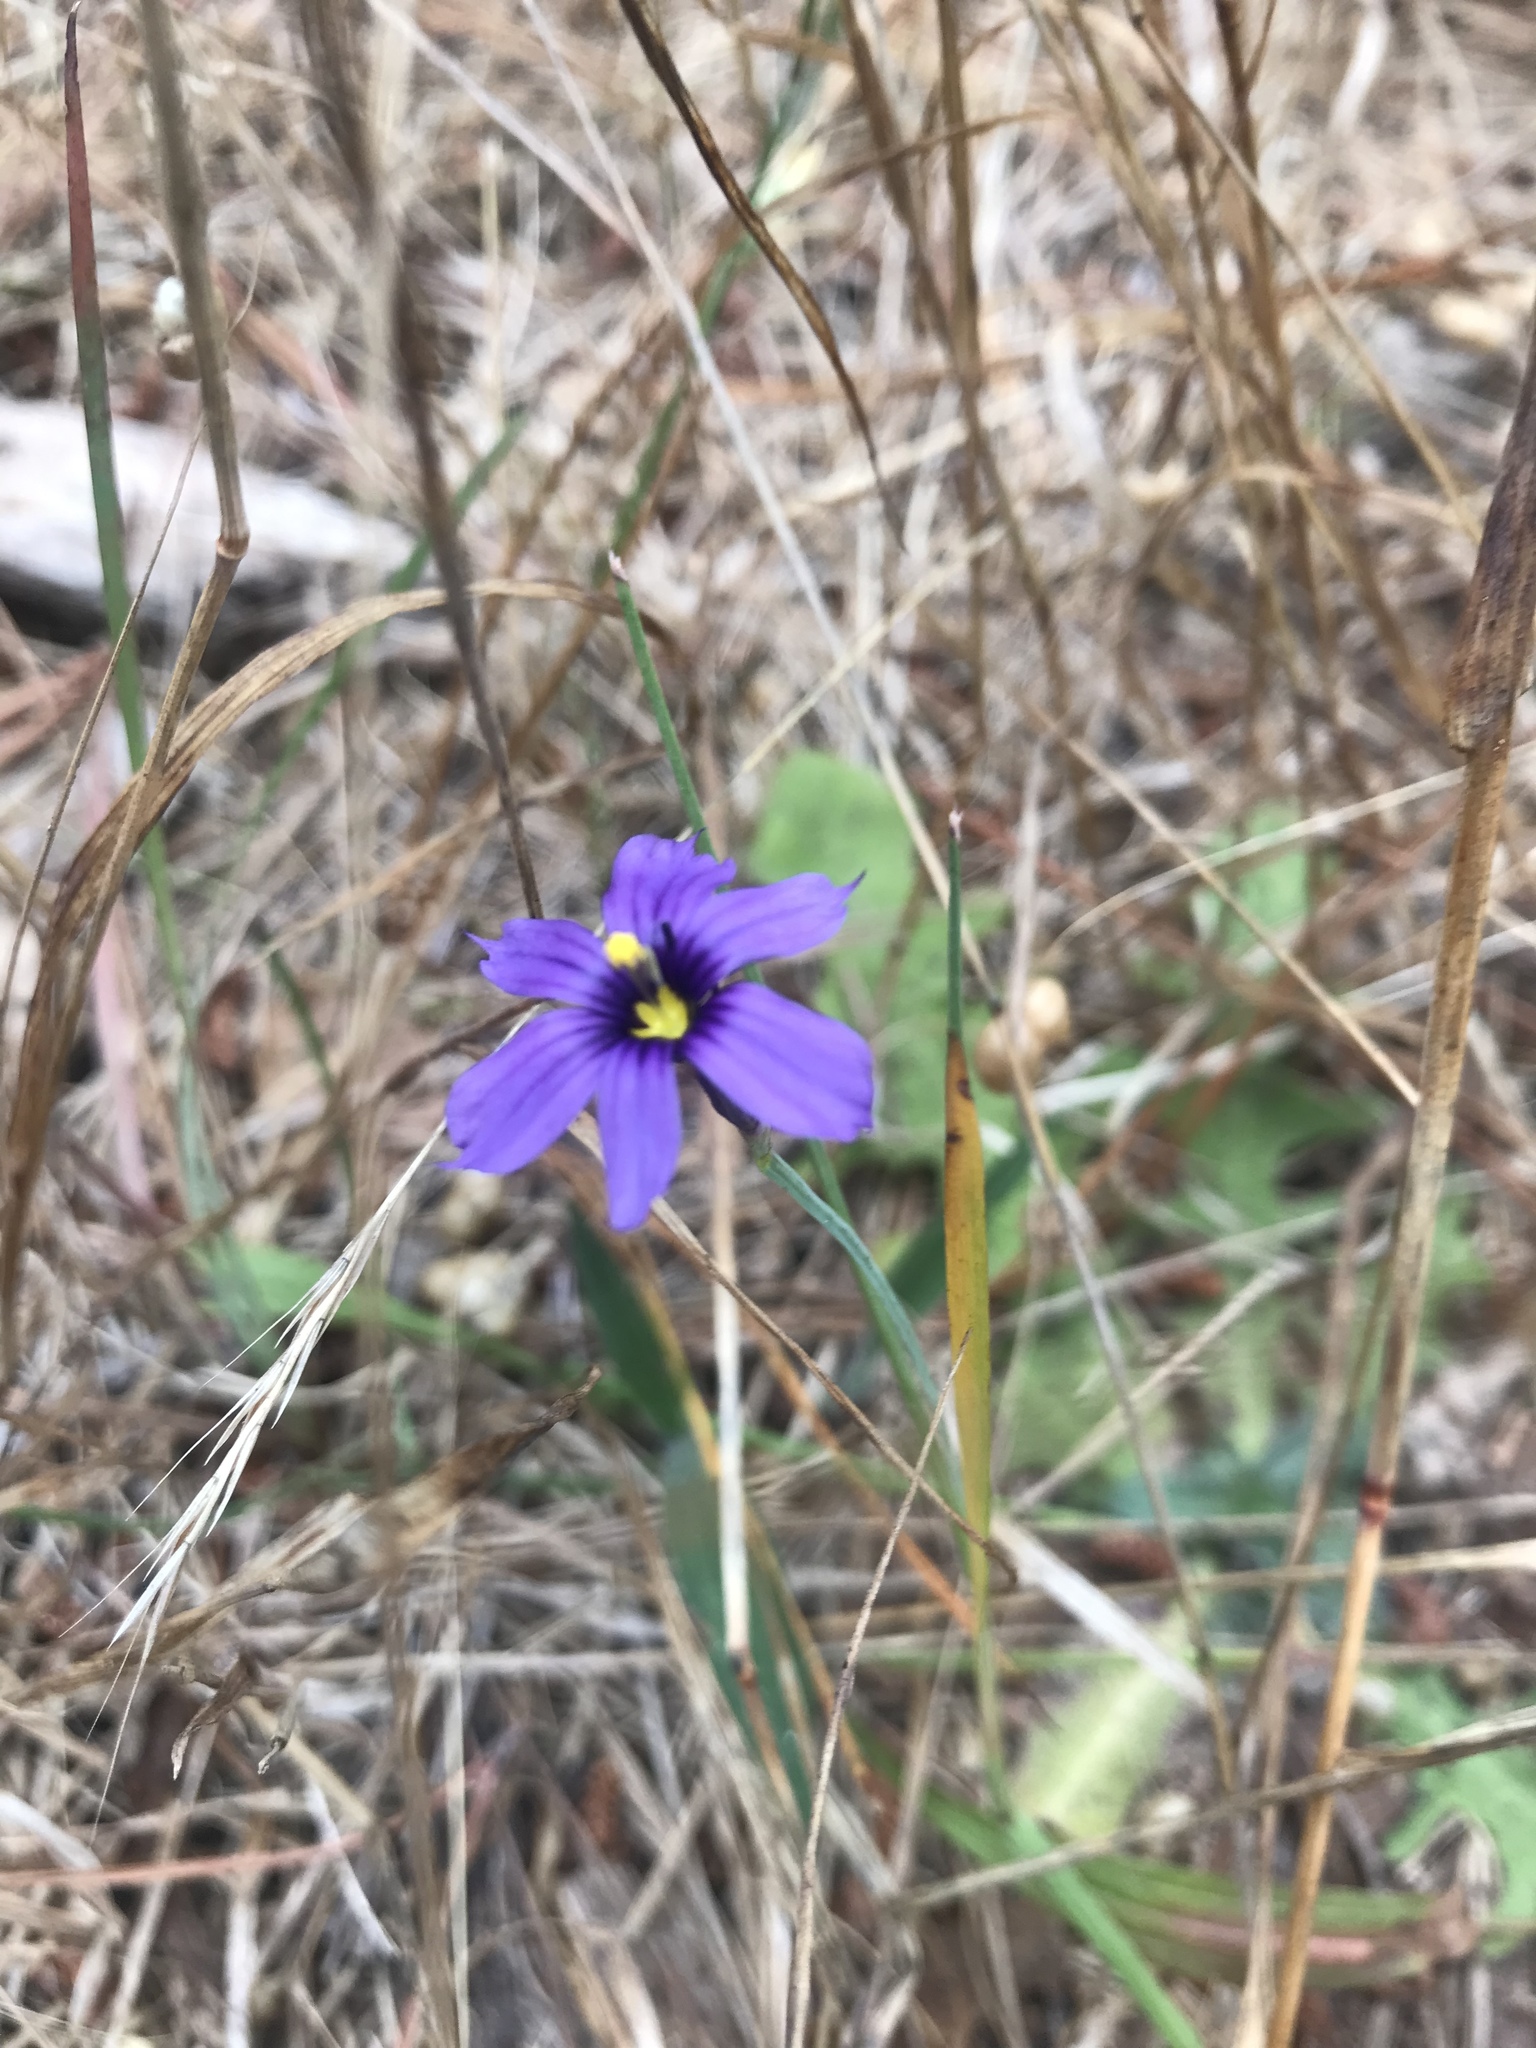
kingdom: Plantae
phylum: Tracheophyta
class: Liliopsida
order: Asparagales
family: Iridaceae
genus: Sisyrinchium
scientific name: Sisyrinchium bellum
